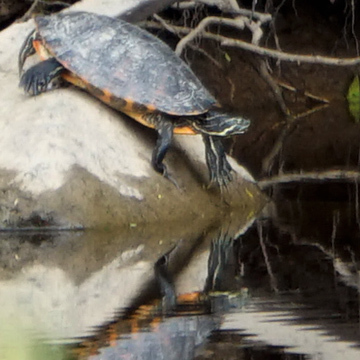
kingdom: Animalia
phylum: Chordata
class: Testudines
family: Emydidae
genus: Pseudemys
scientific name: Pseudemys concinna
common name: Eastern river cooter
